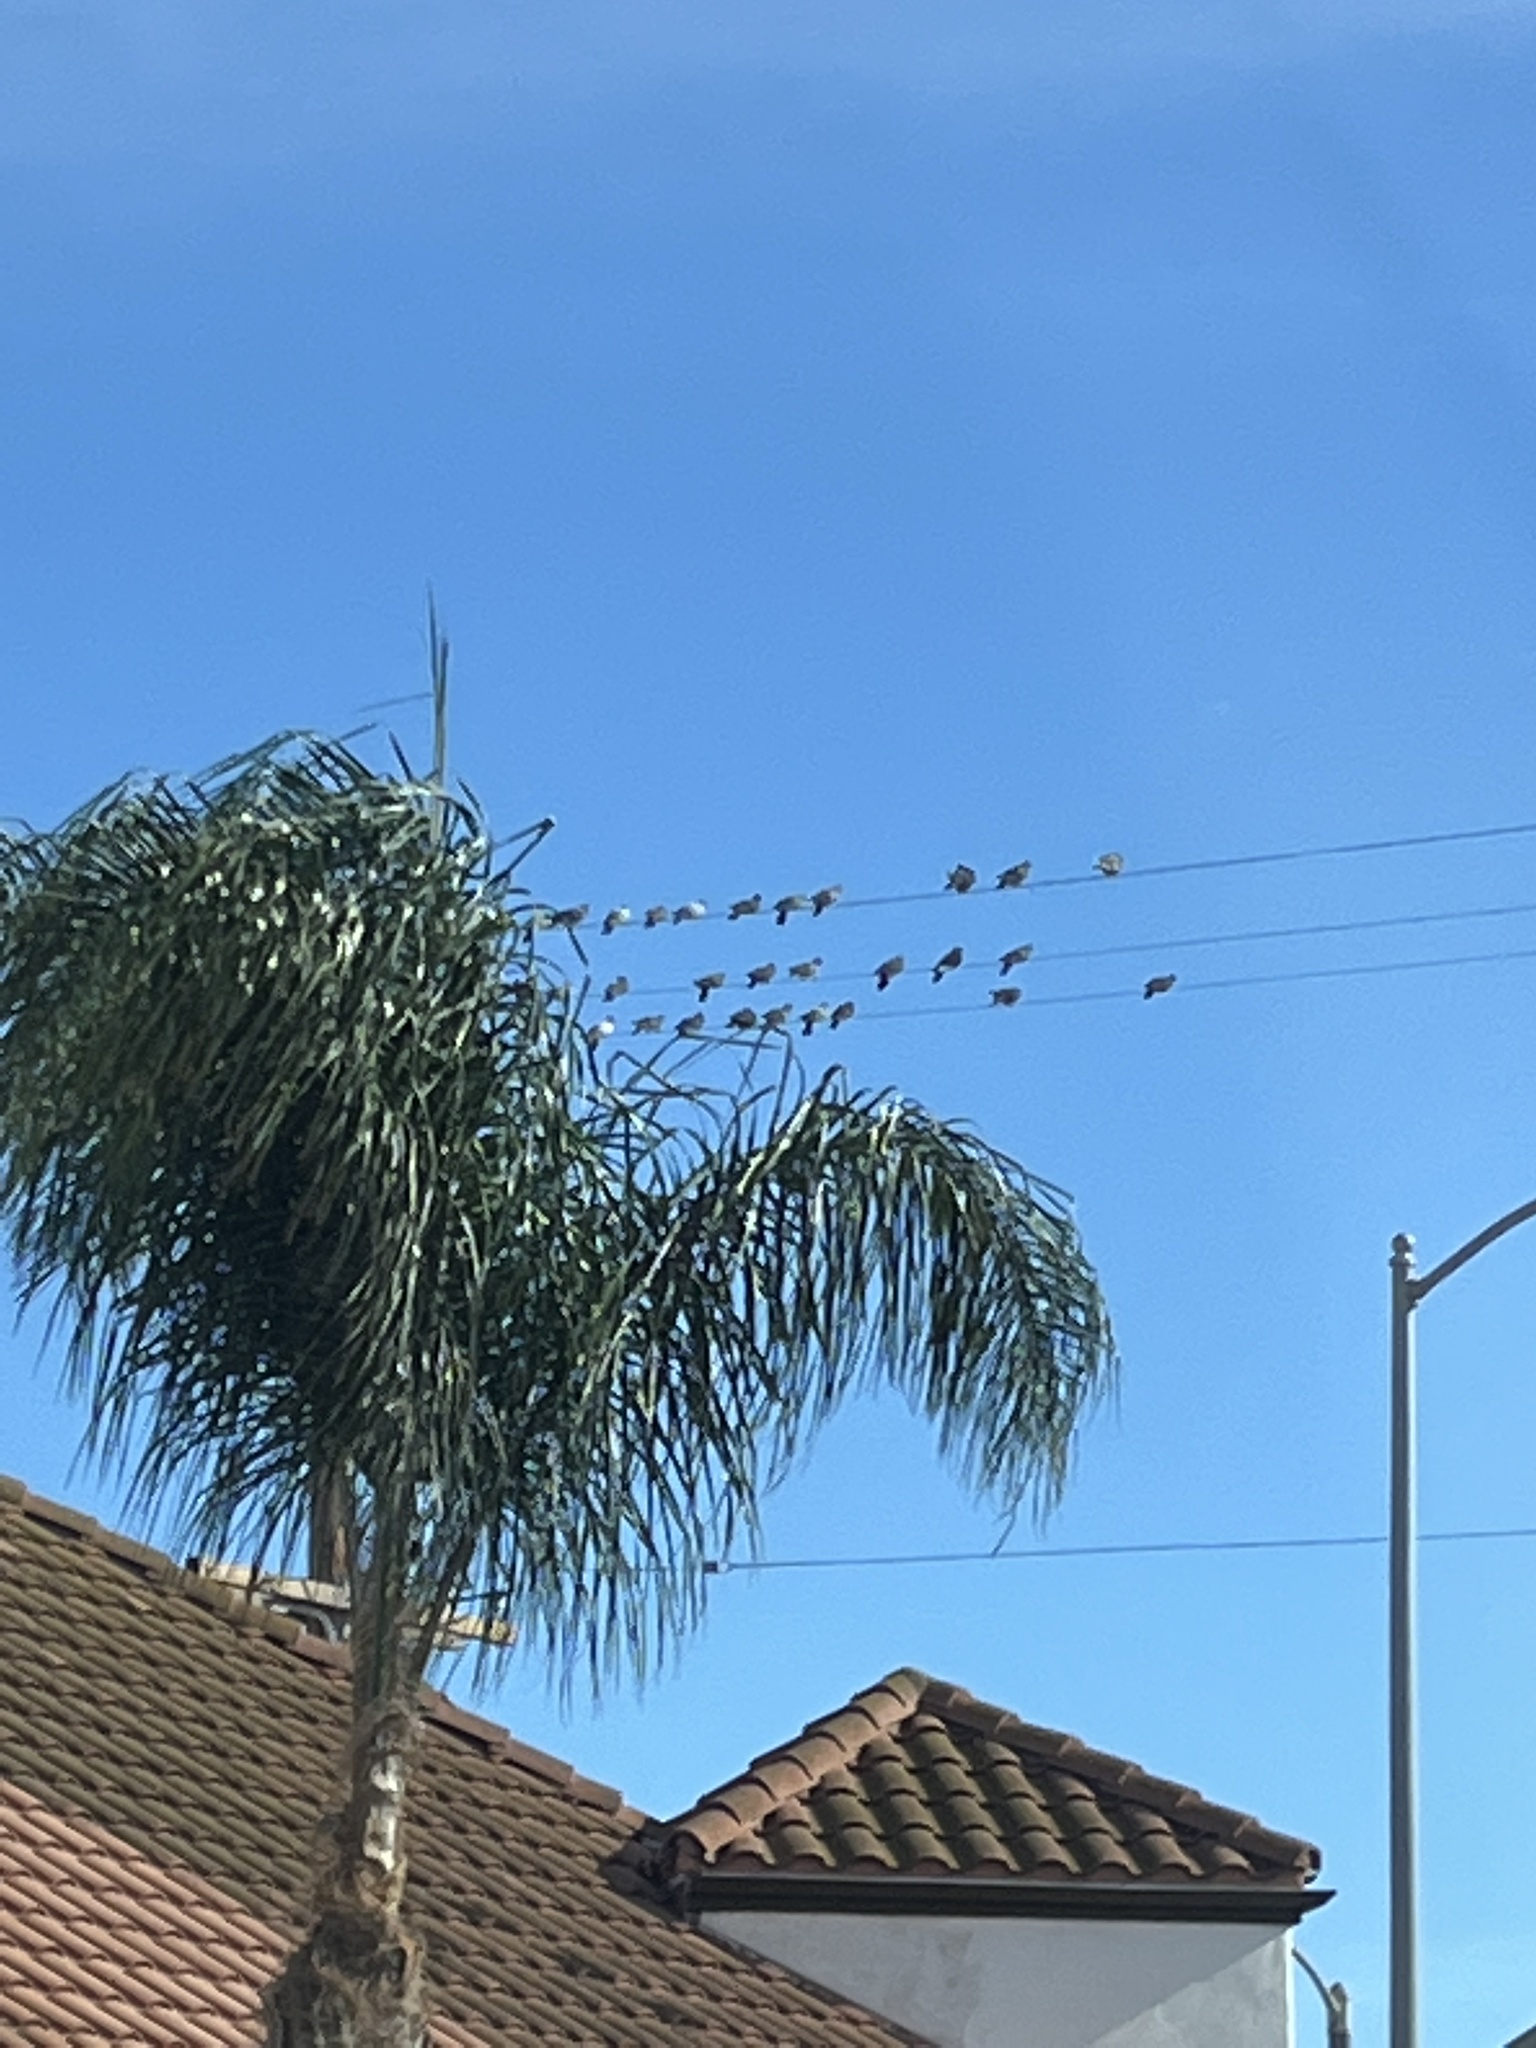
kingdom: Animalia
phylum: Chordata
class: Aves
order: Columbiformes
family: Columbidae
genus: Columba
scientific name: Columba livia
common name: Rock pigeon
